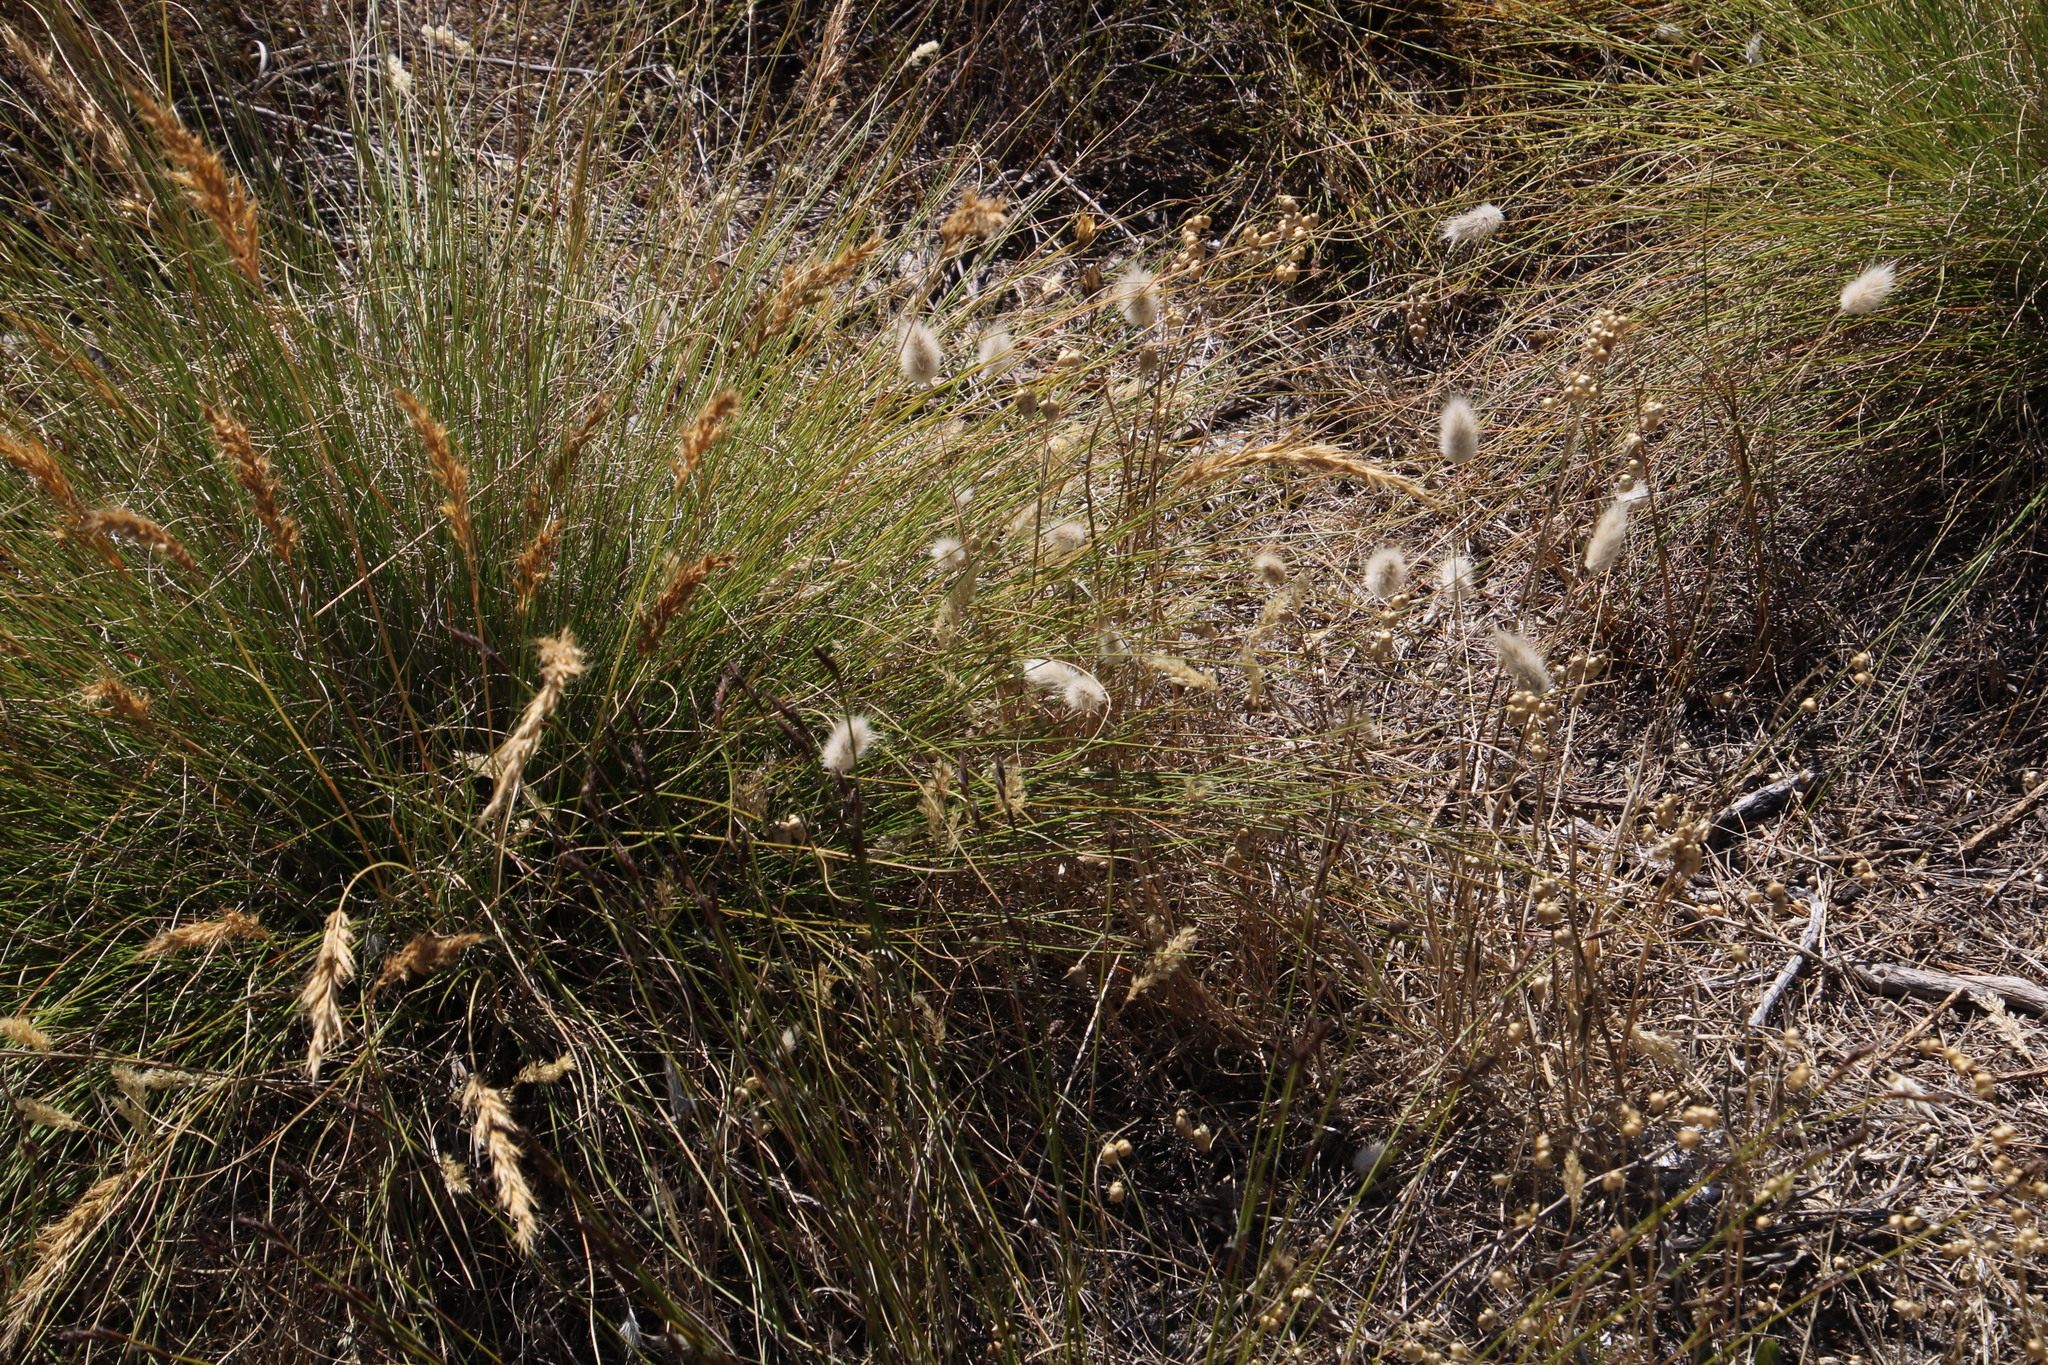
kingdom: Plantae
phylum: Tracheophyta
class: Liliopsida
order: Poales
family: Poaceae
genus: Lagurus
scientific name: Lagurus ovatus
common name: Hare's-tail
